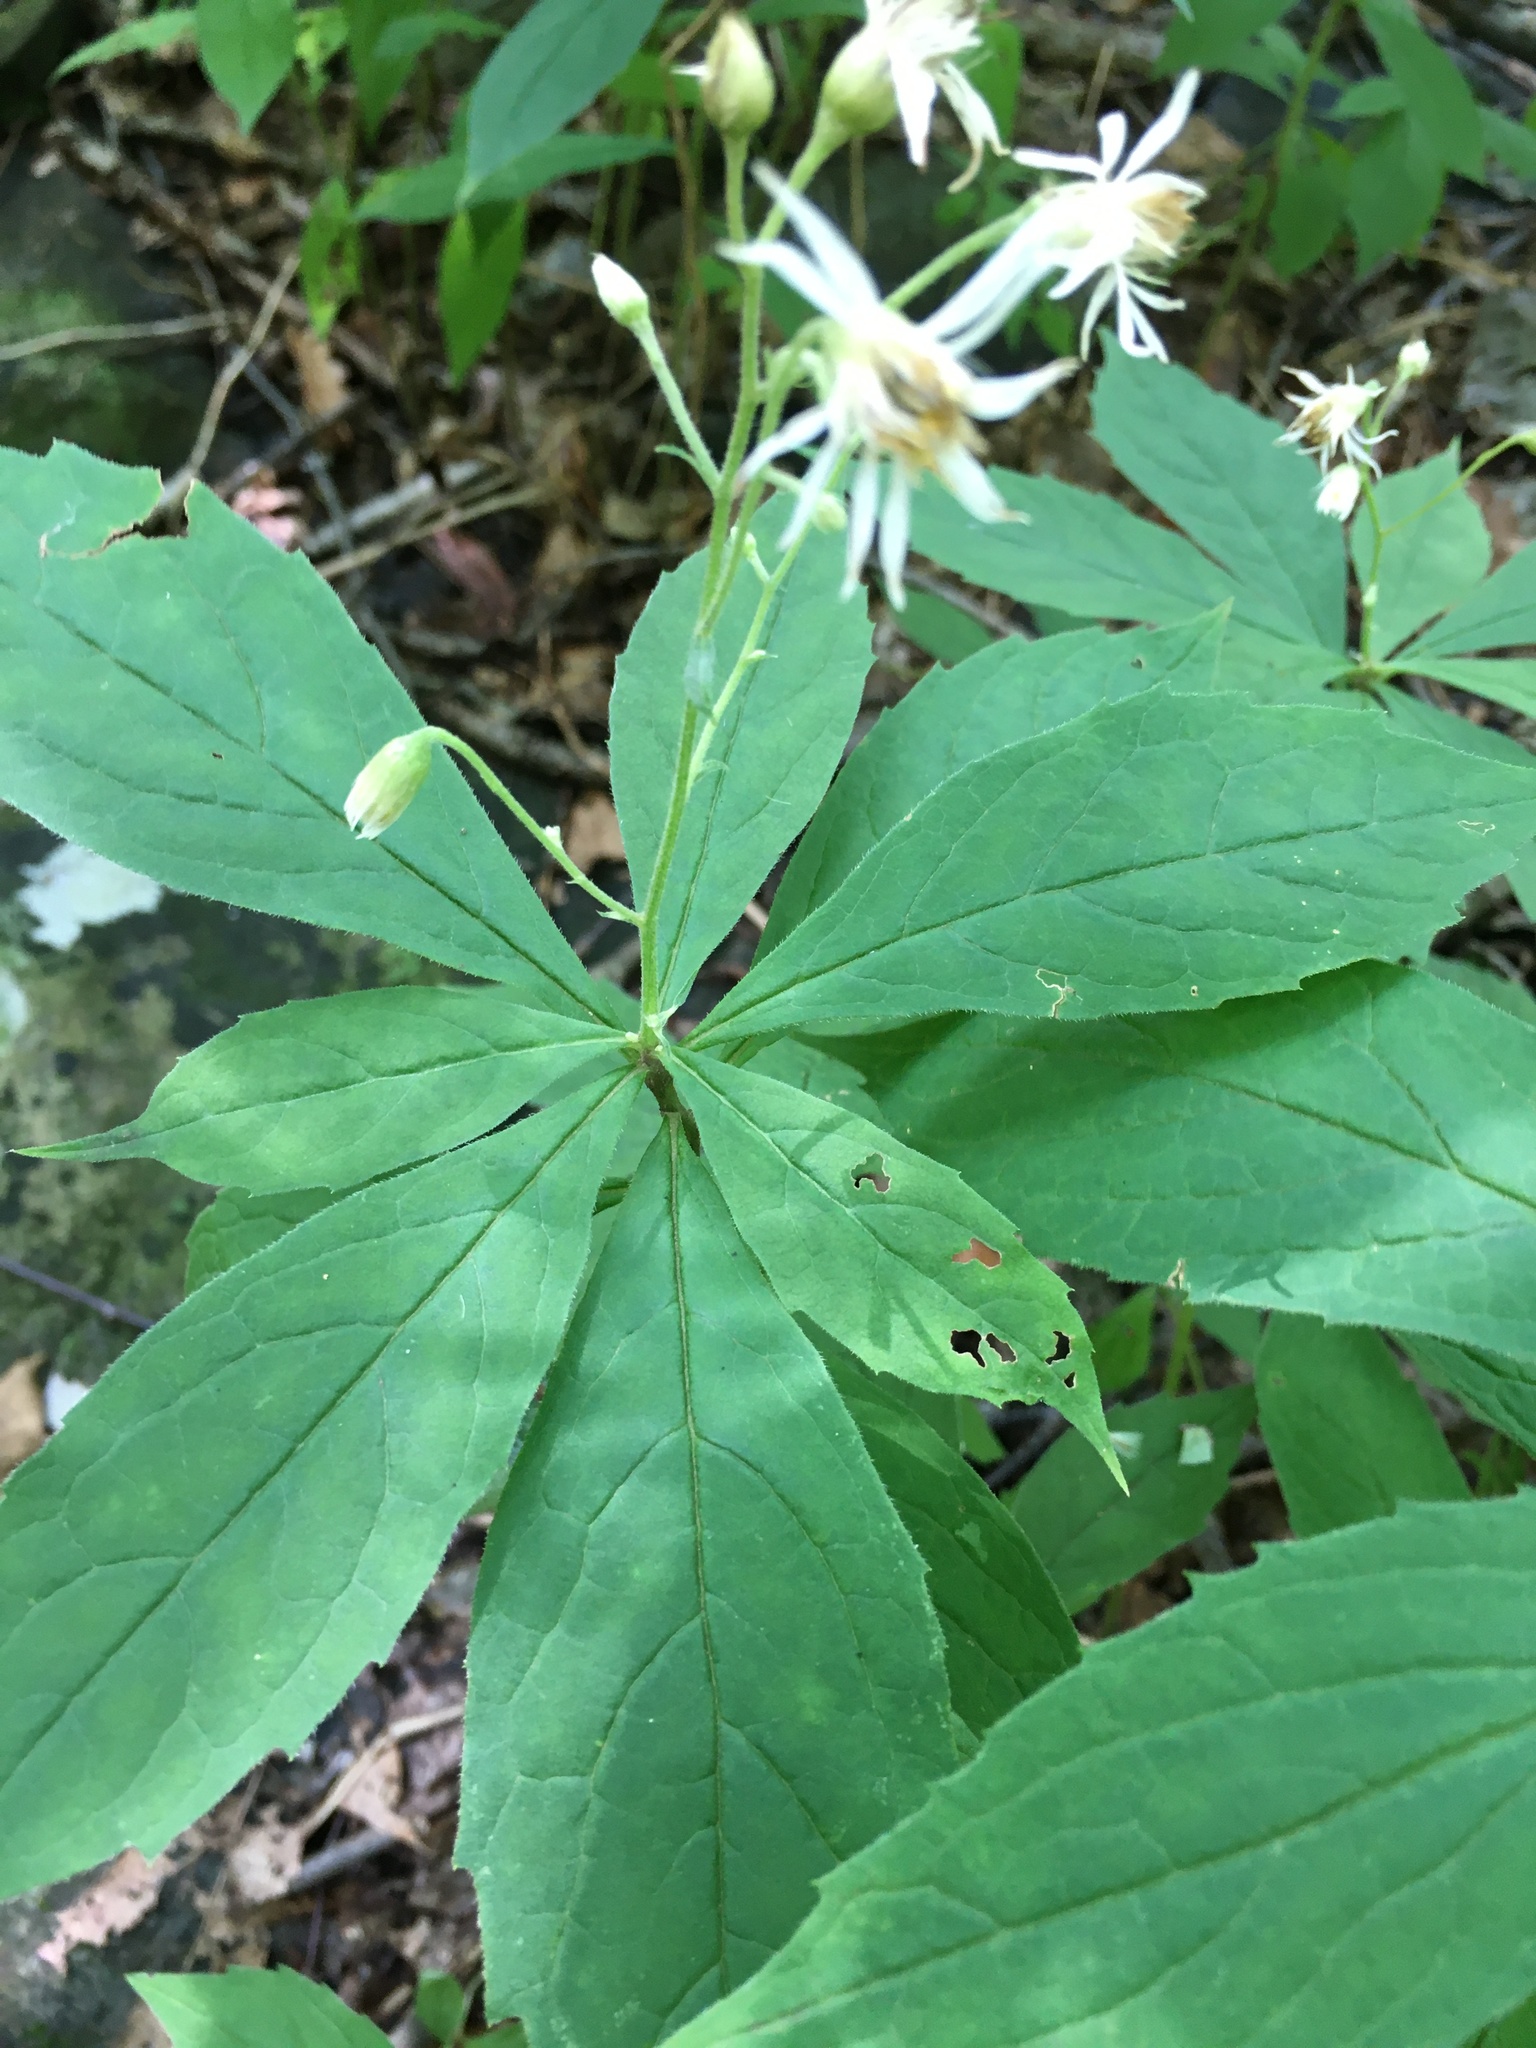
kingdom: Plantae
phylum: Tracheophyta
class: Magnoliopsida
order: Asterales
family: Asteraceae
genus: Oclemena
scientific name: Oclemena acuminata
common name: Mountain aster
